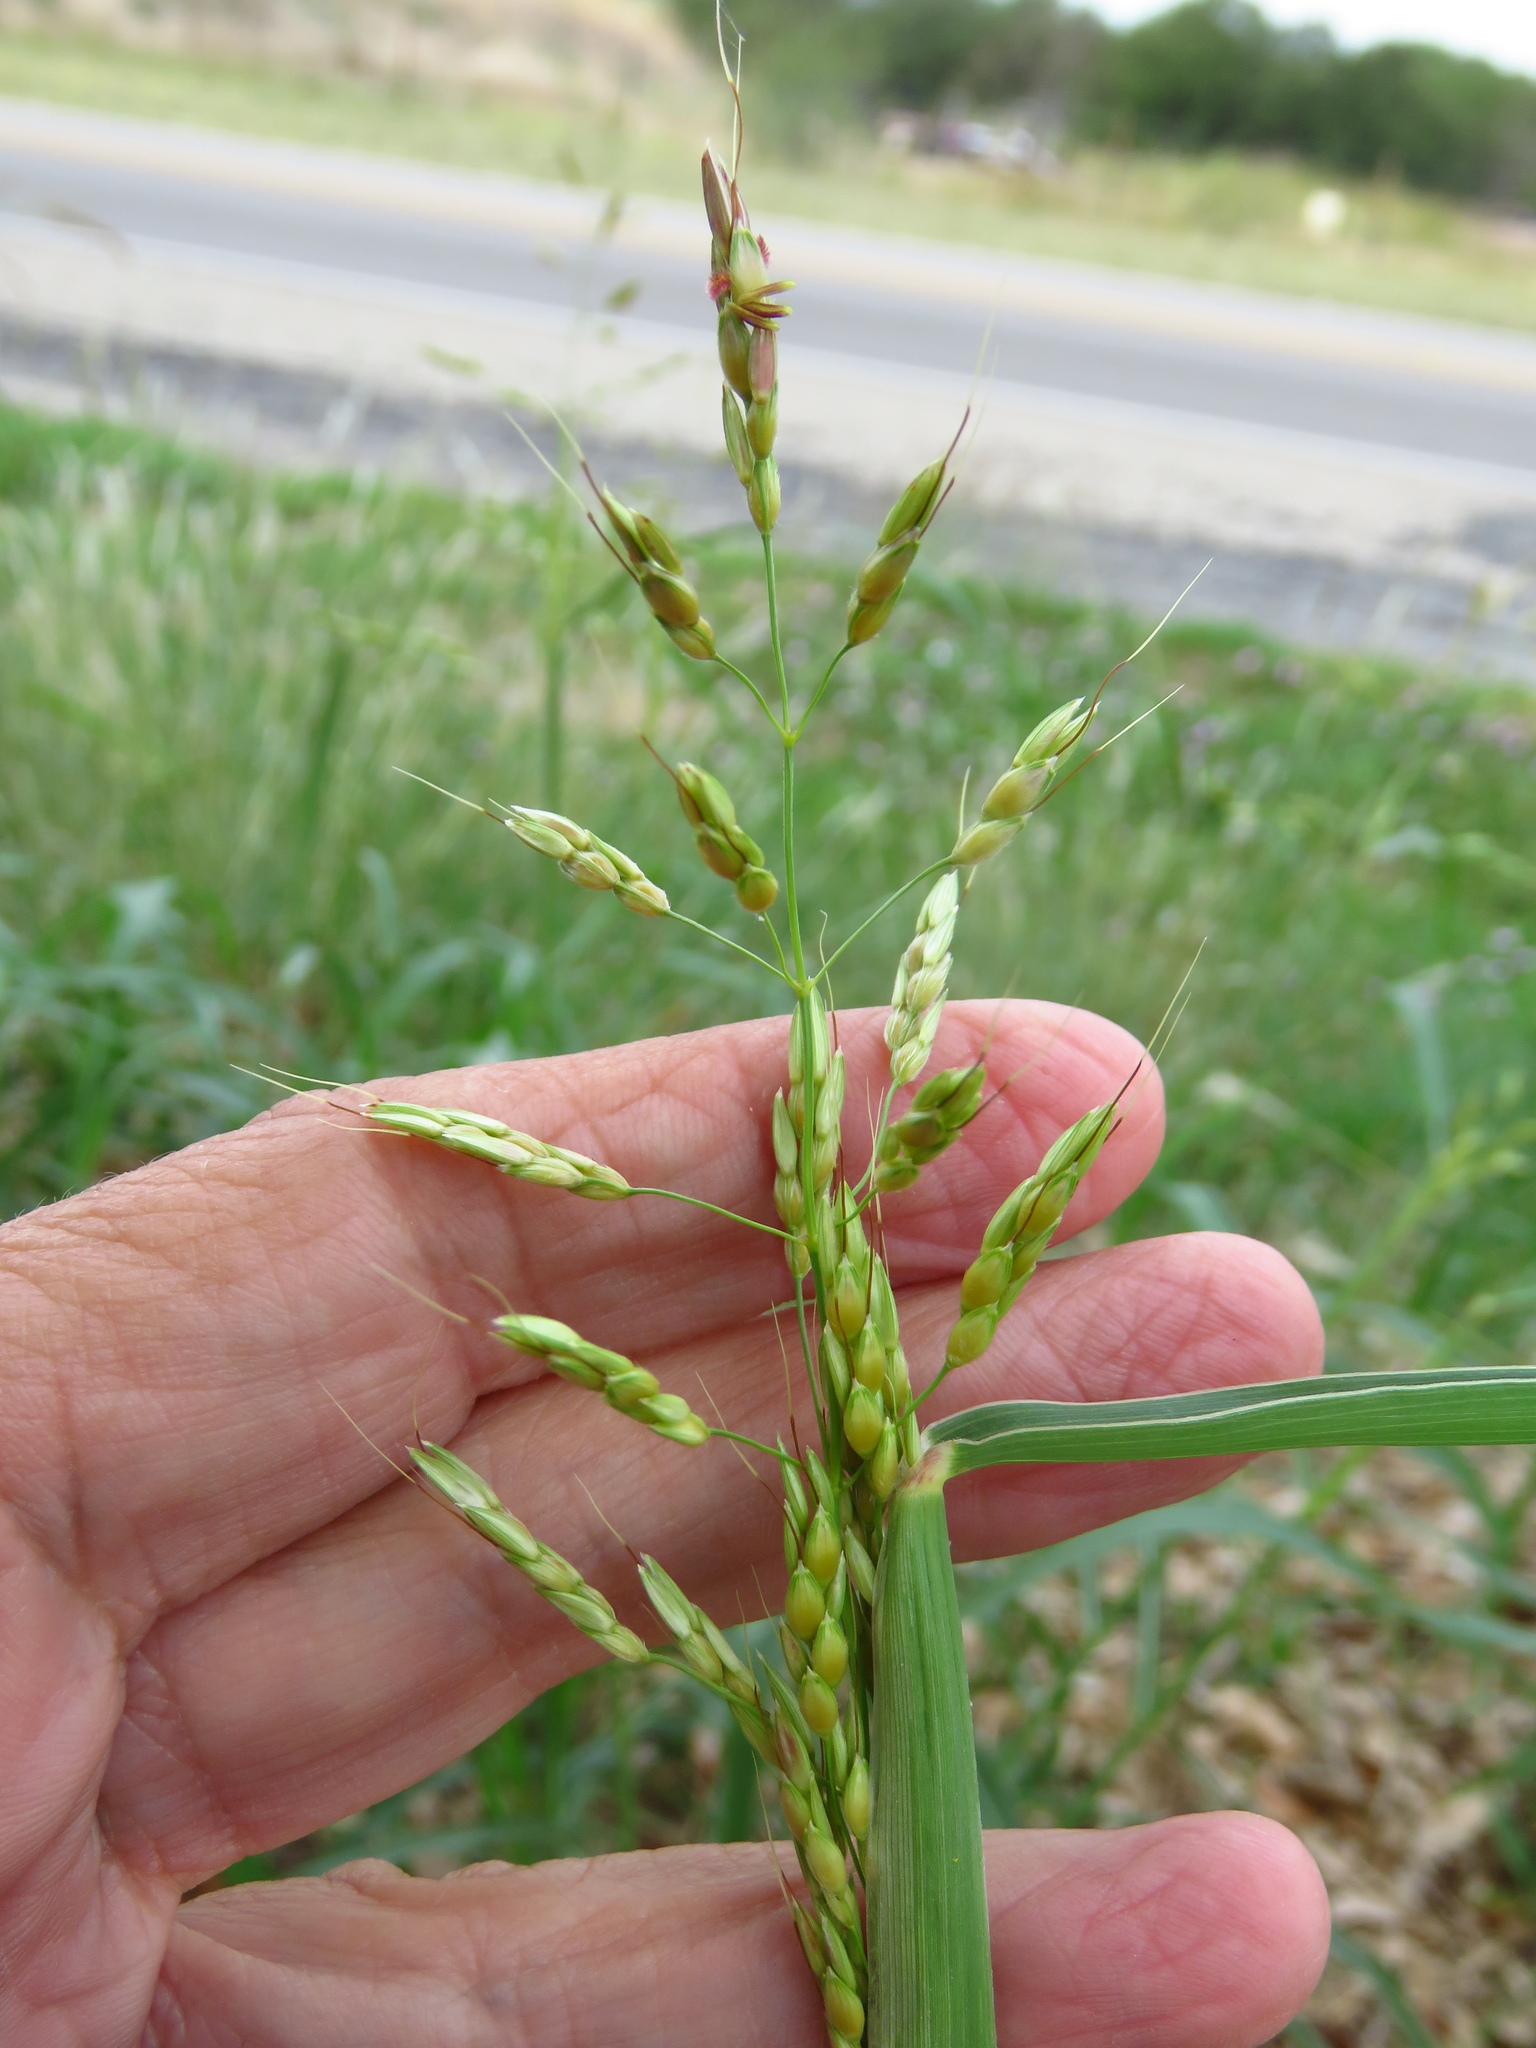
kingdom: Plantae
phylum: Tracheophyta
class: Liliopsida
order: Poales
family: Poaceae
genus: Sorghum
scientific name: Sorghum halepense
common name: Johnson-grass
